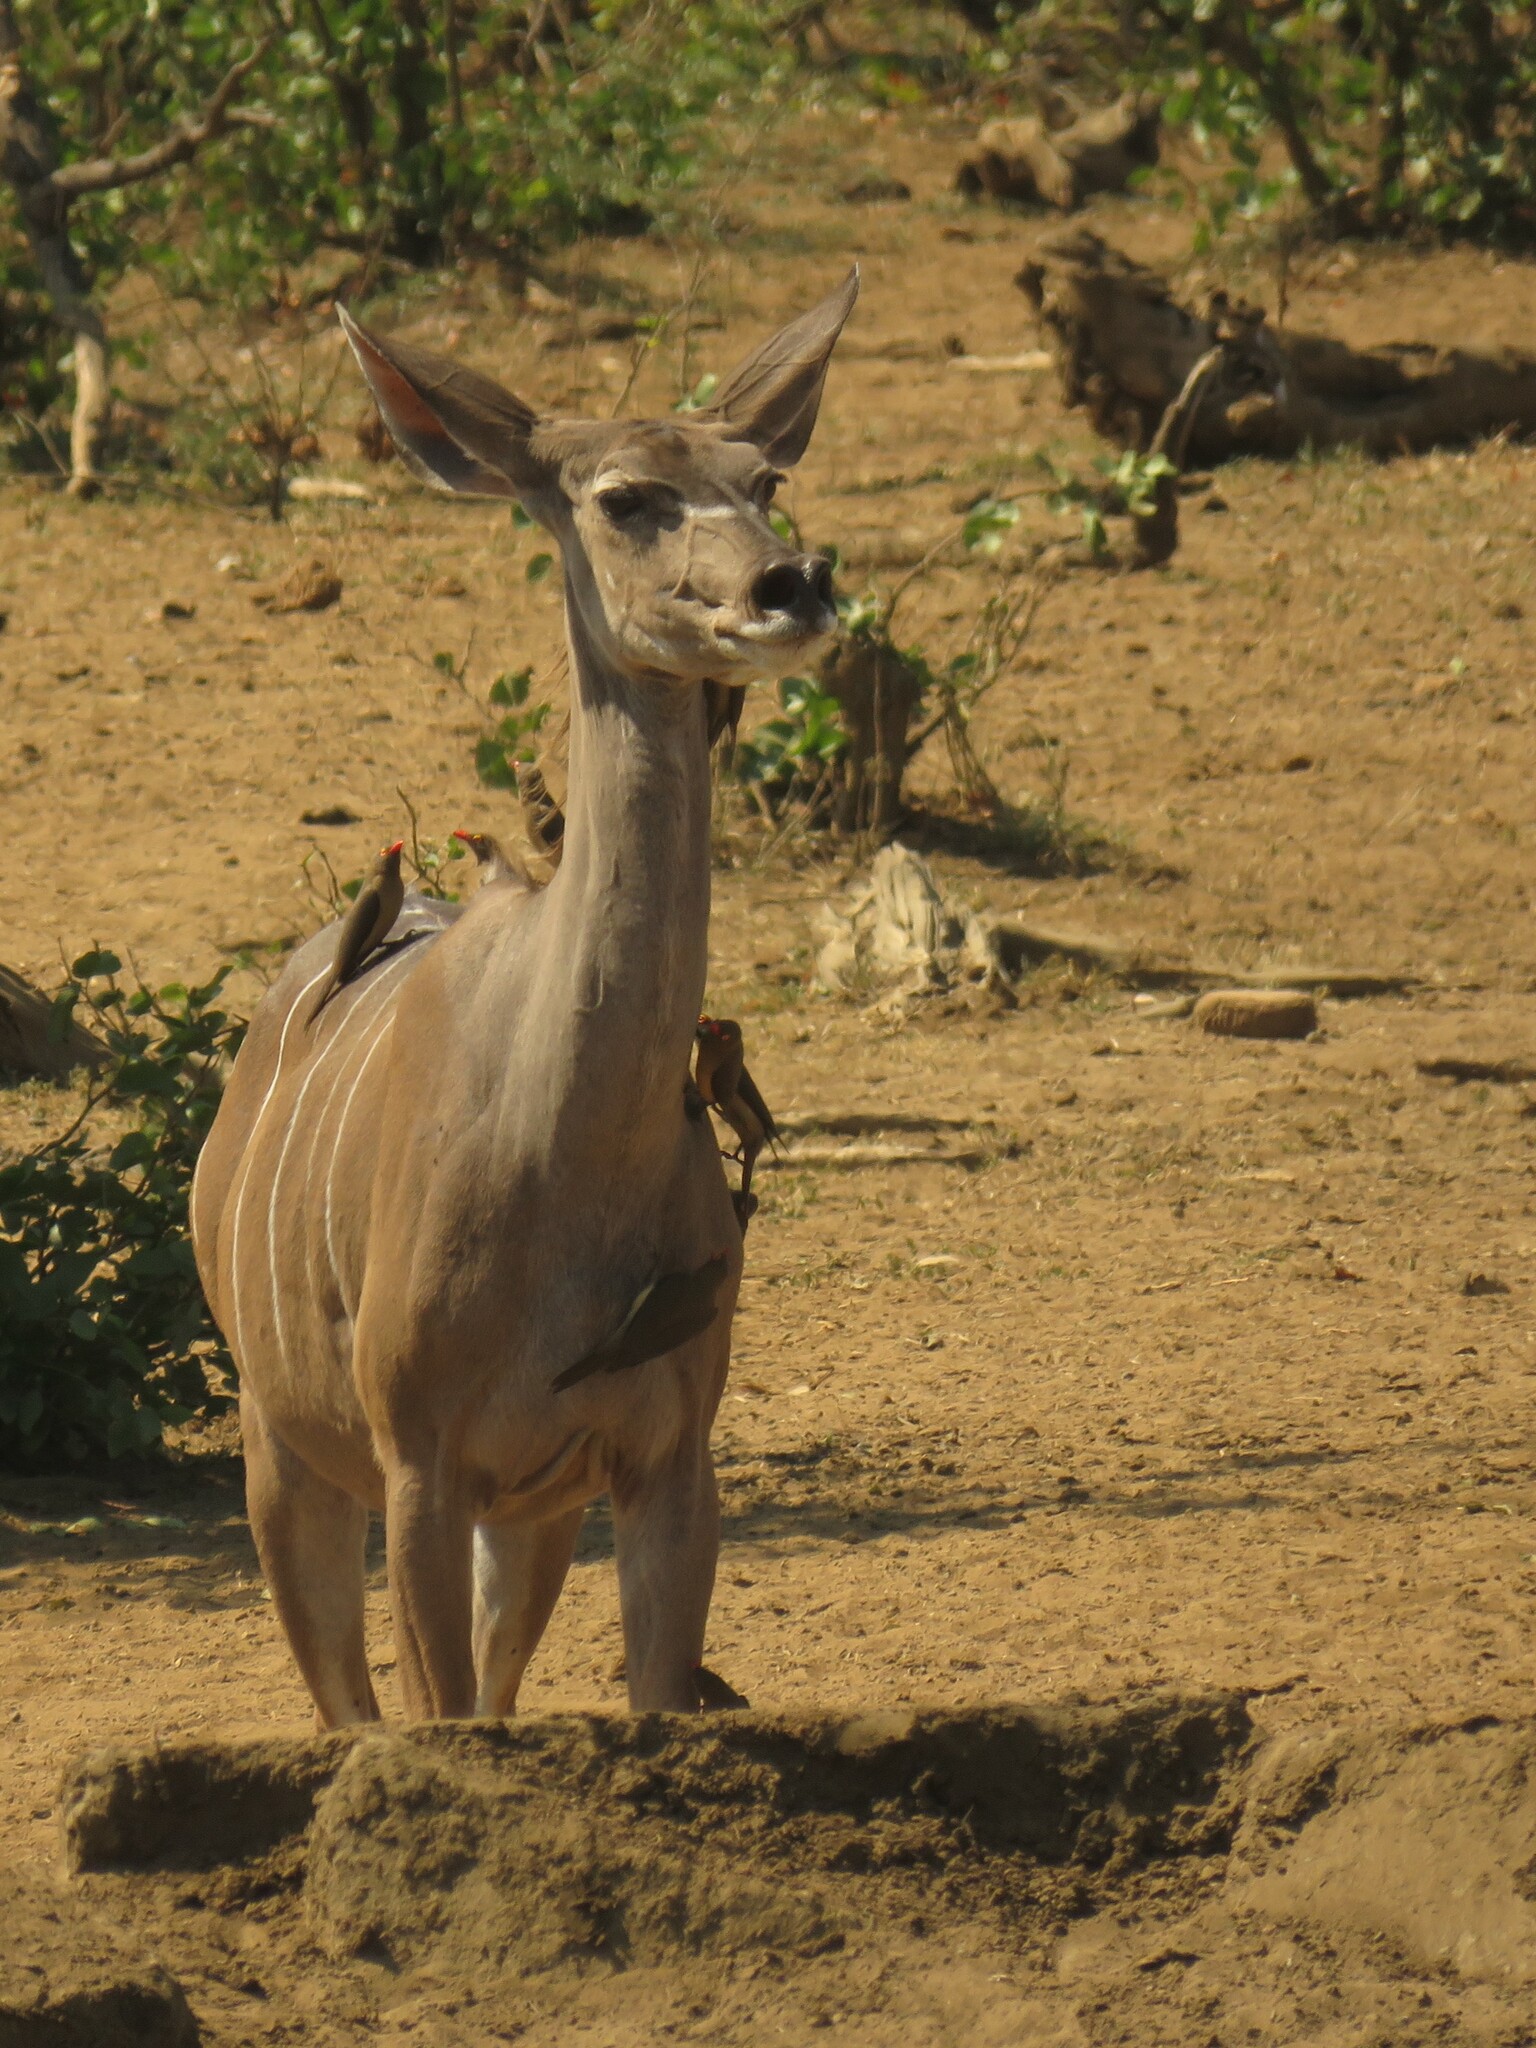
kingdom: Animalia
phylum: Chordata
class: Mammalia
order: Artiodactyla
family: Bovidae
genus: Tragelaphus
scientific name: Tragelaphus strepsiceros
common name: Greater kudu
